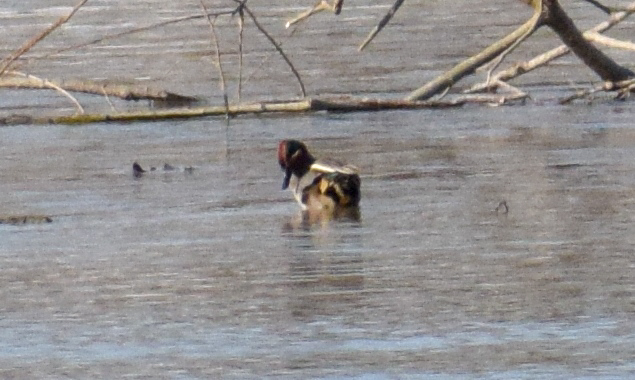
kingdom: Animalia
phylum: Chordata
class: Aves
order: Anseriformes
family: Anatidae
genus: Anas
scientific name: Anas crecca
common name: Eurasian teal
